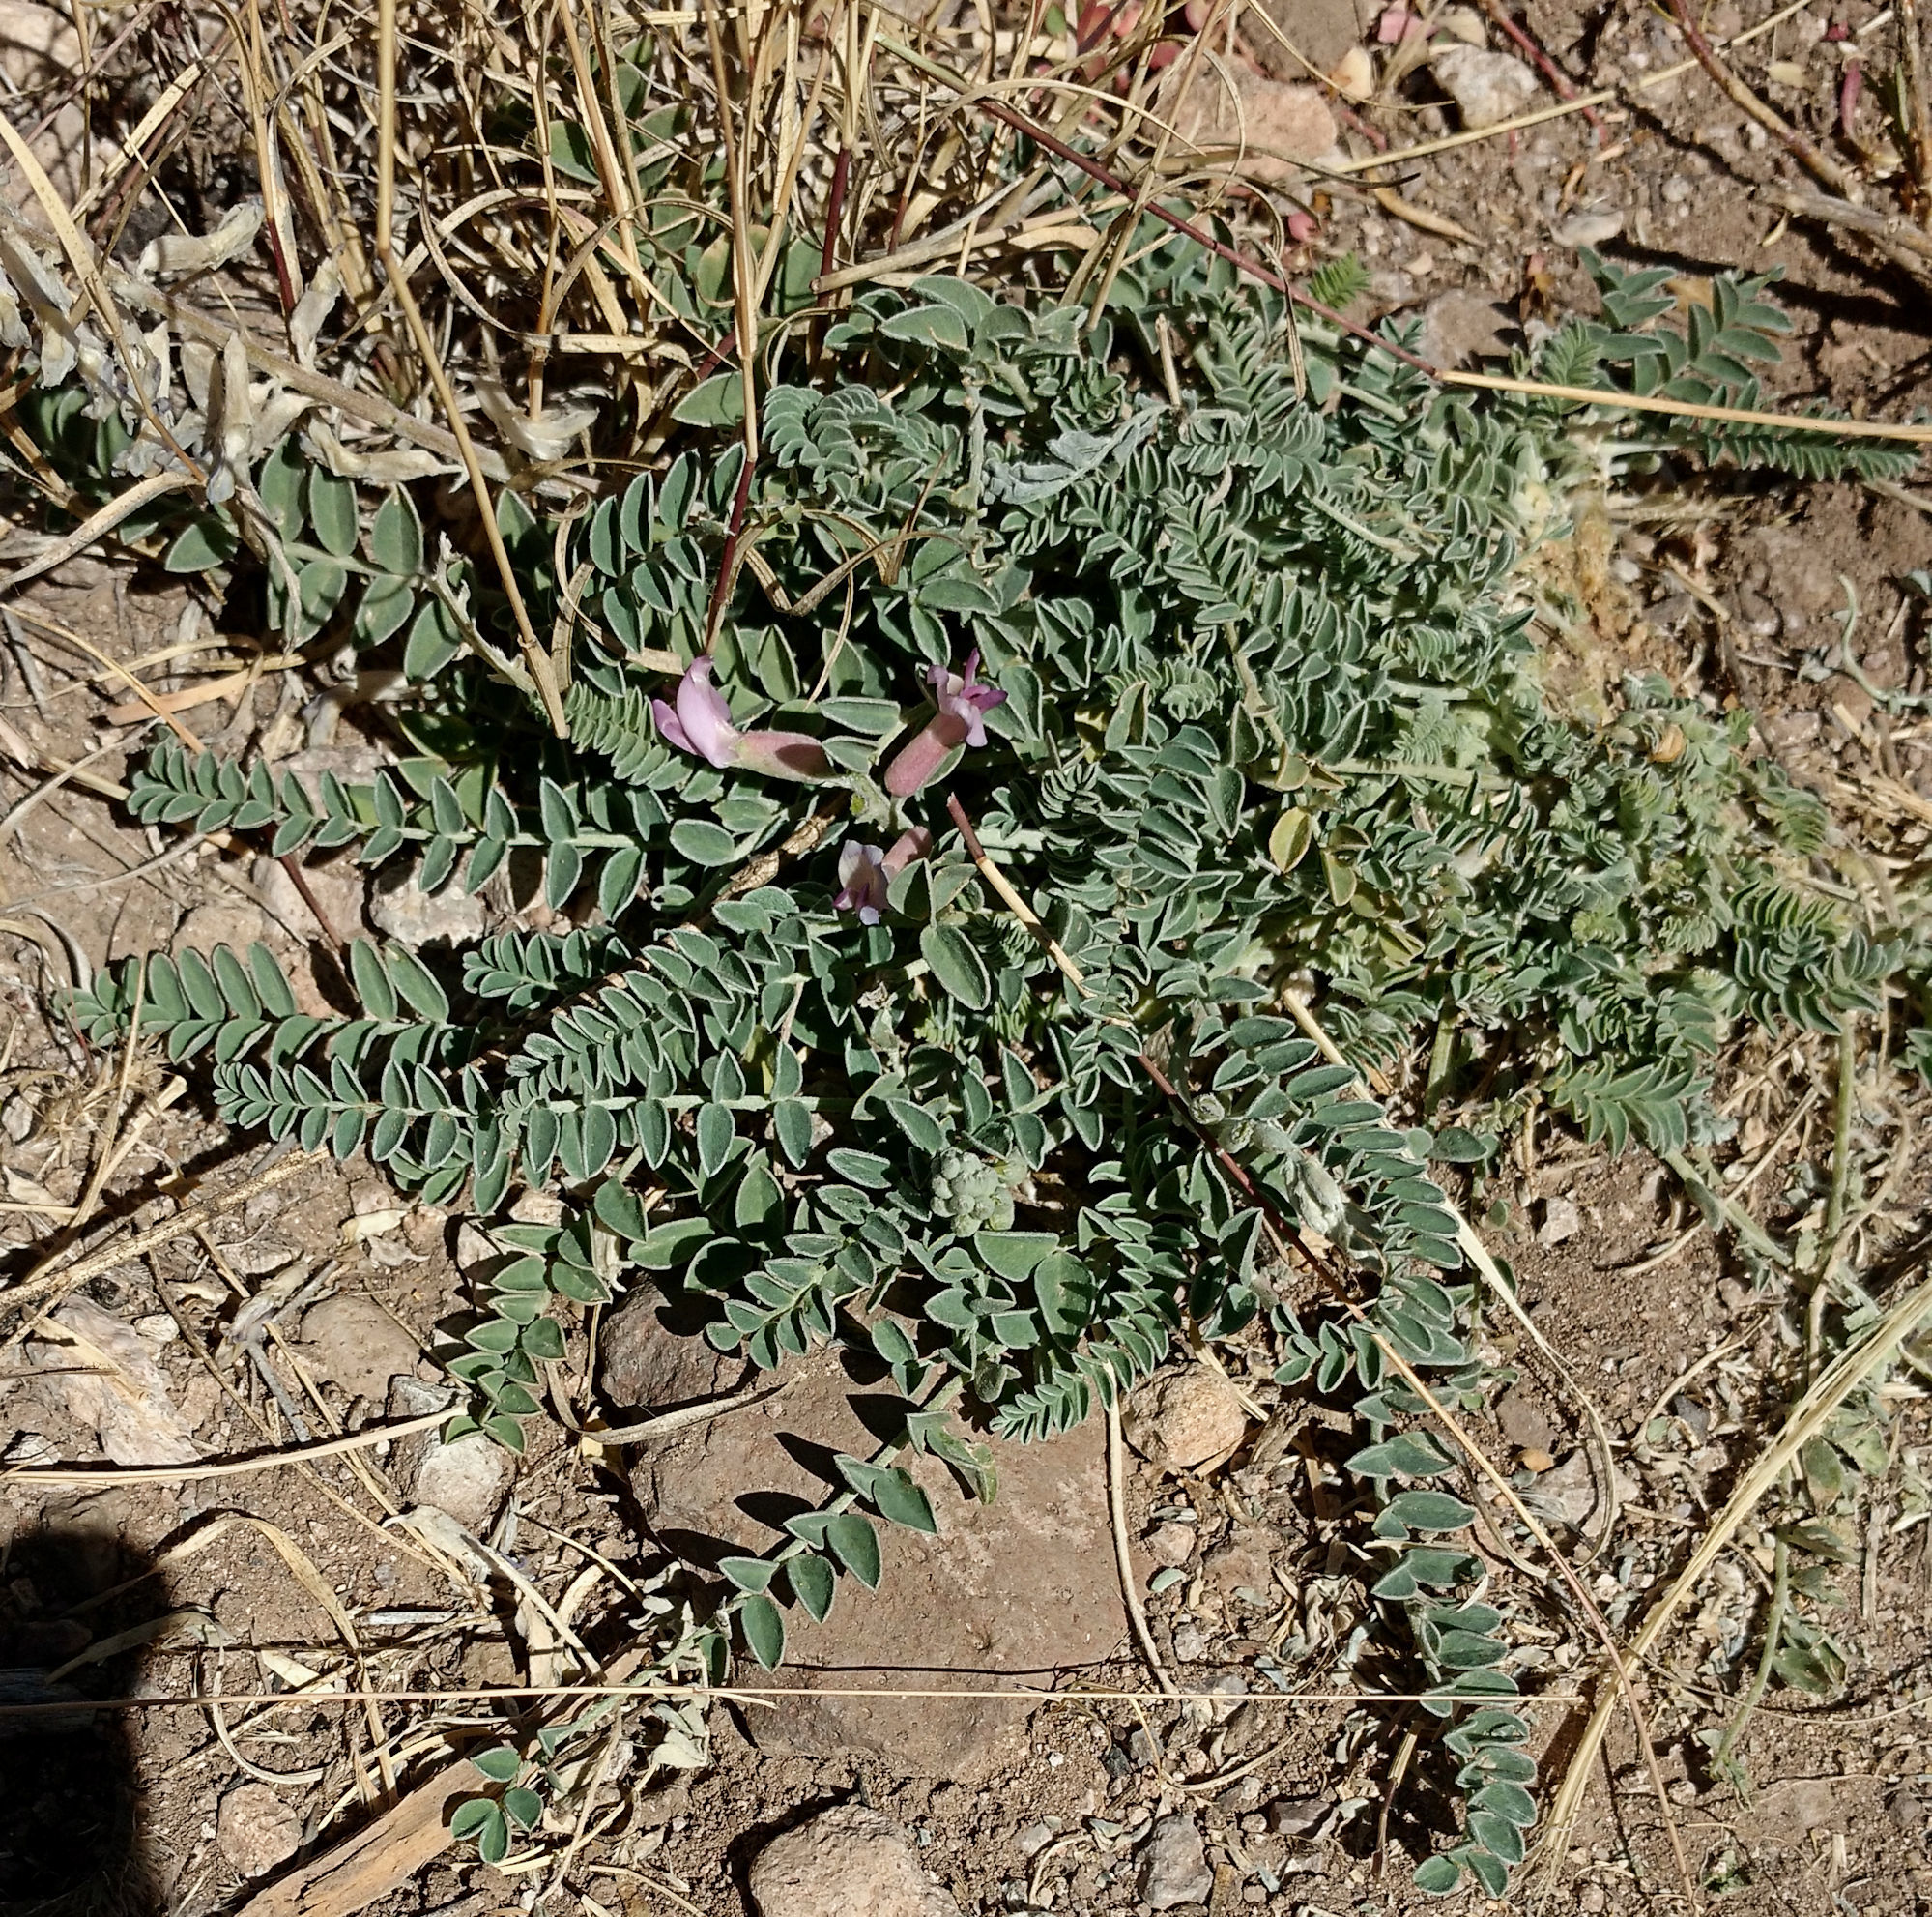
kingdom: Plantae
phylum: Tracheophyta
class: Magnoliopsida
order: Fabales
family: Fabaceae
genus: Astragalus
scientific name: Astragalus tephrodes
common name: Ashen milk-vetch
